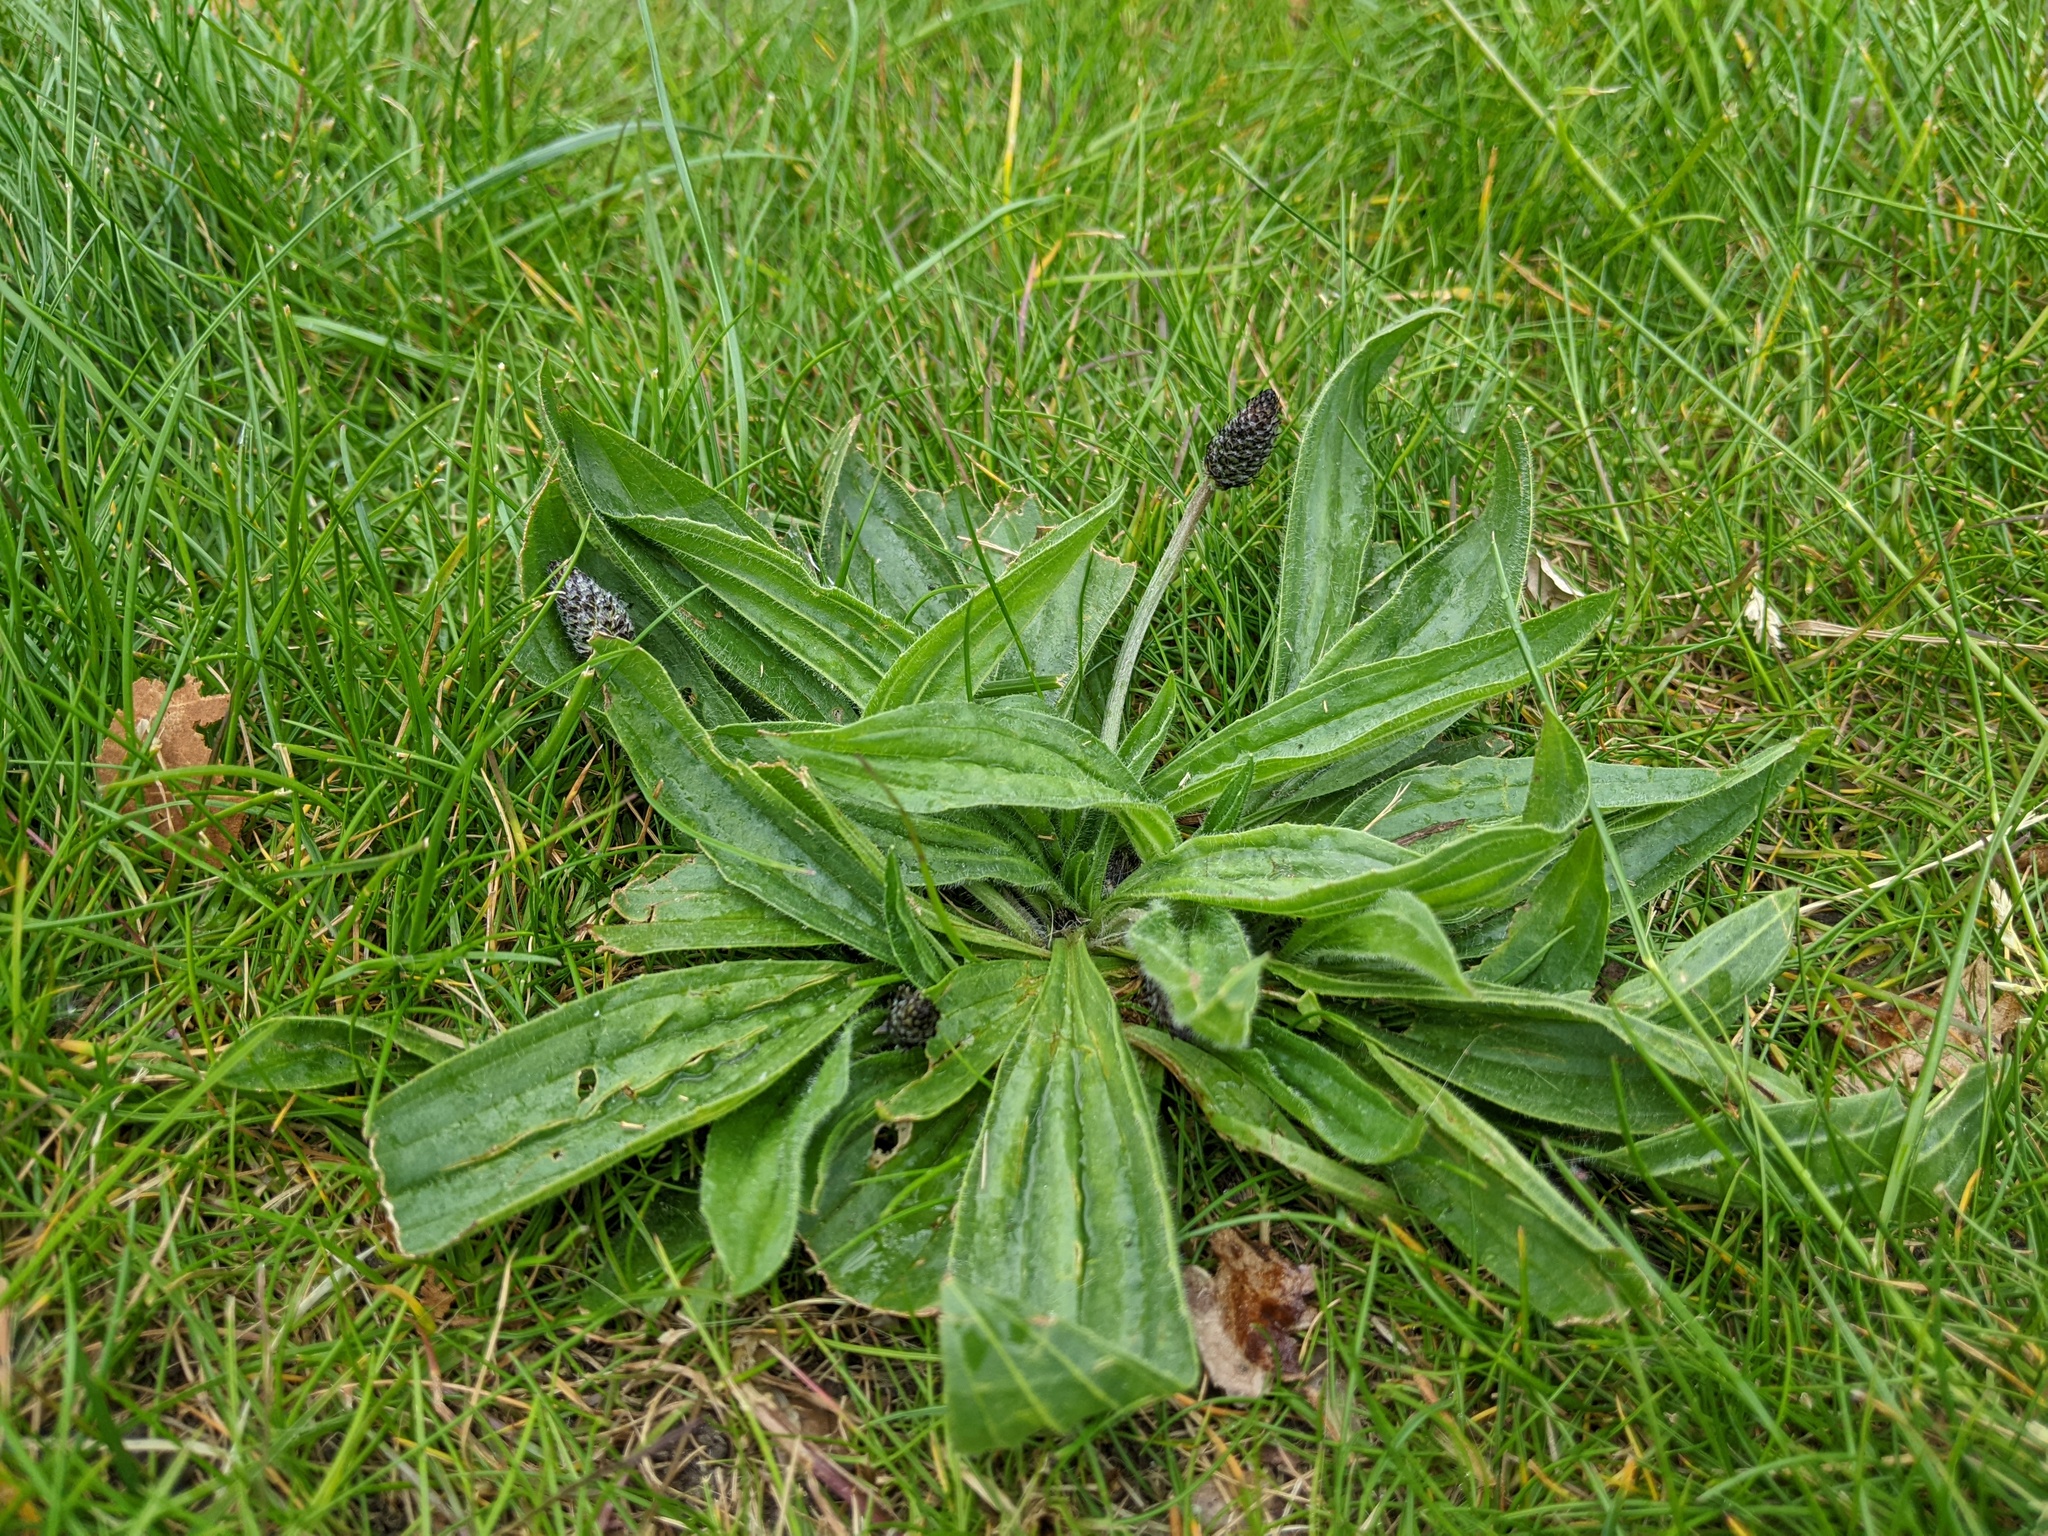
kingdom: Plantae
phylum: Tracheophyta
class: Magnoliopsida
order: Lamiales
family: Plantaginaceae
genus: Plantago
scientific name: Plantago lanceolata
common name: Ribwort plantain
